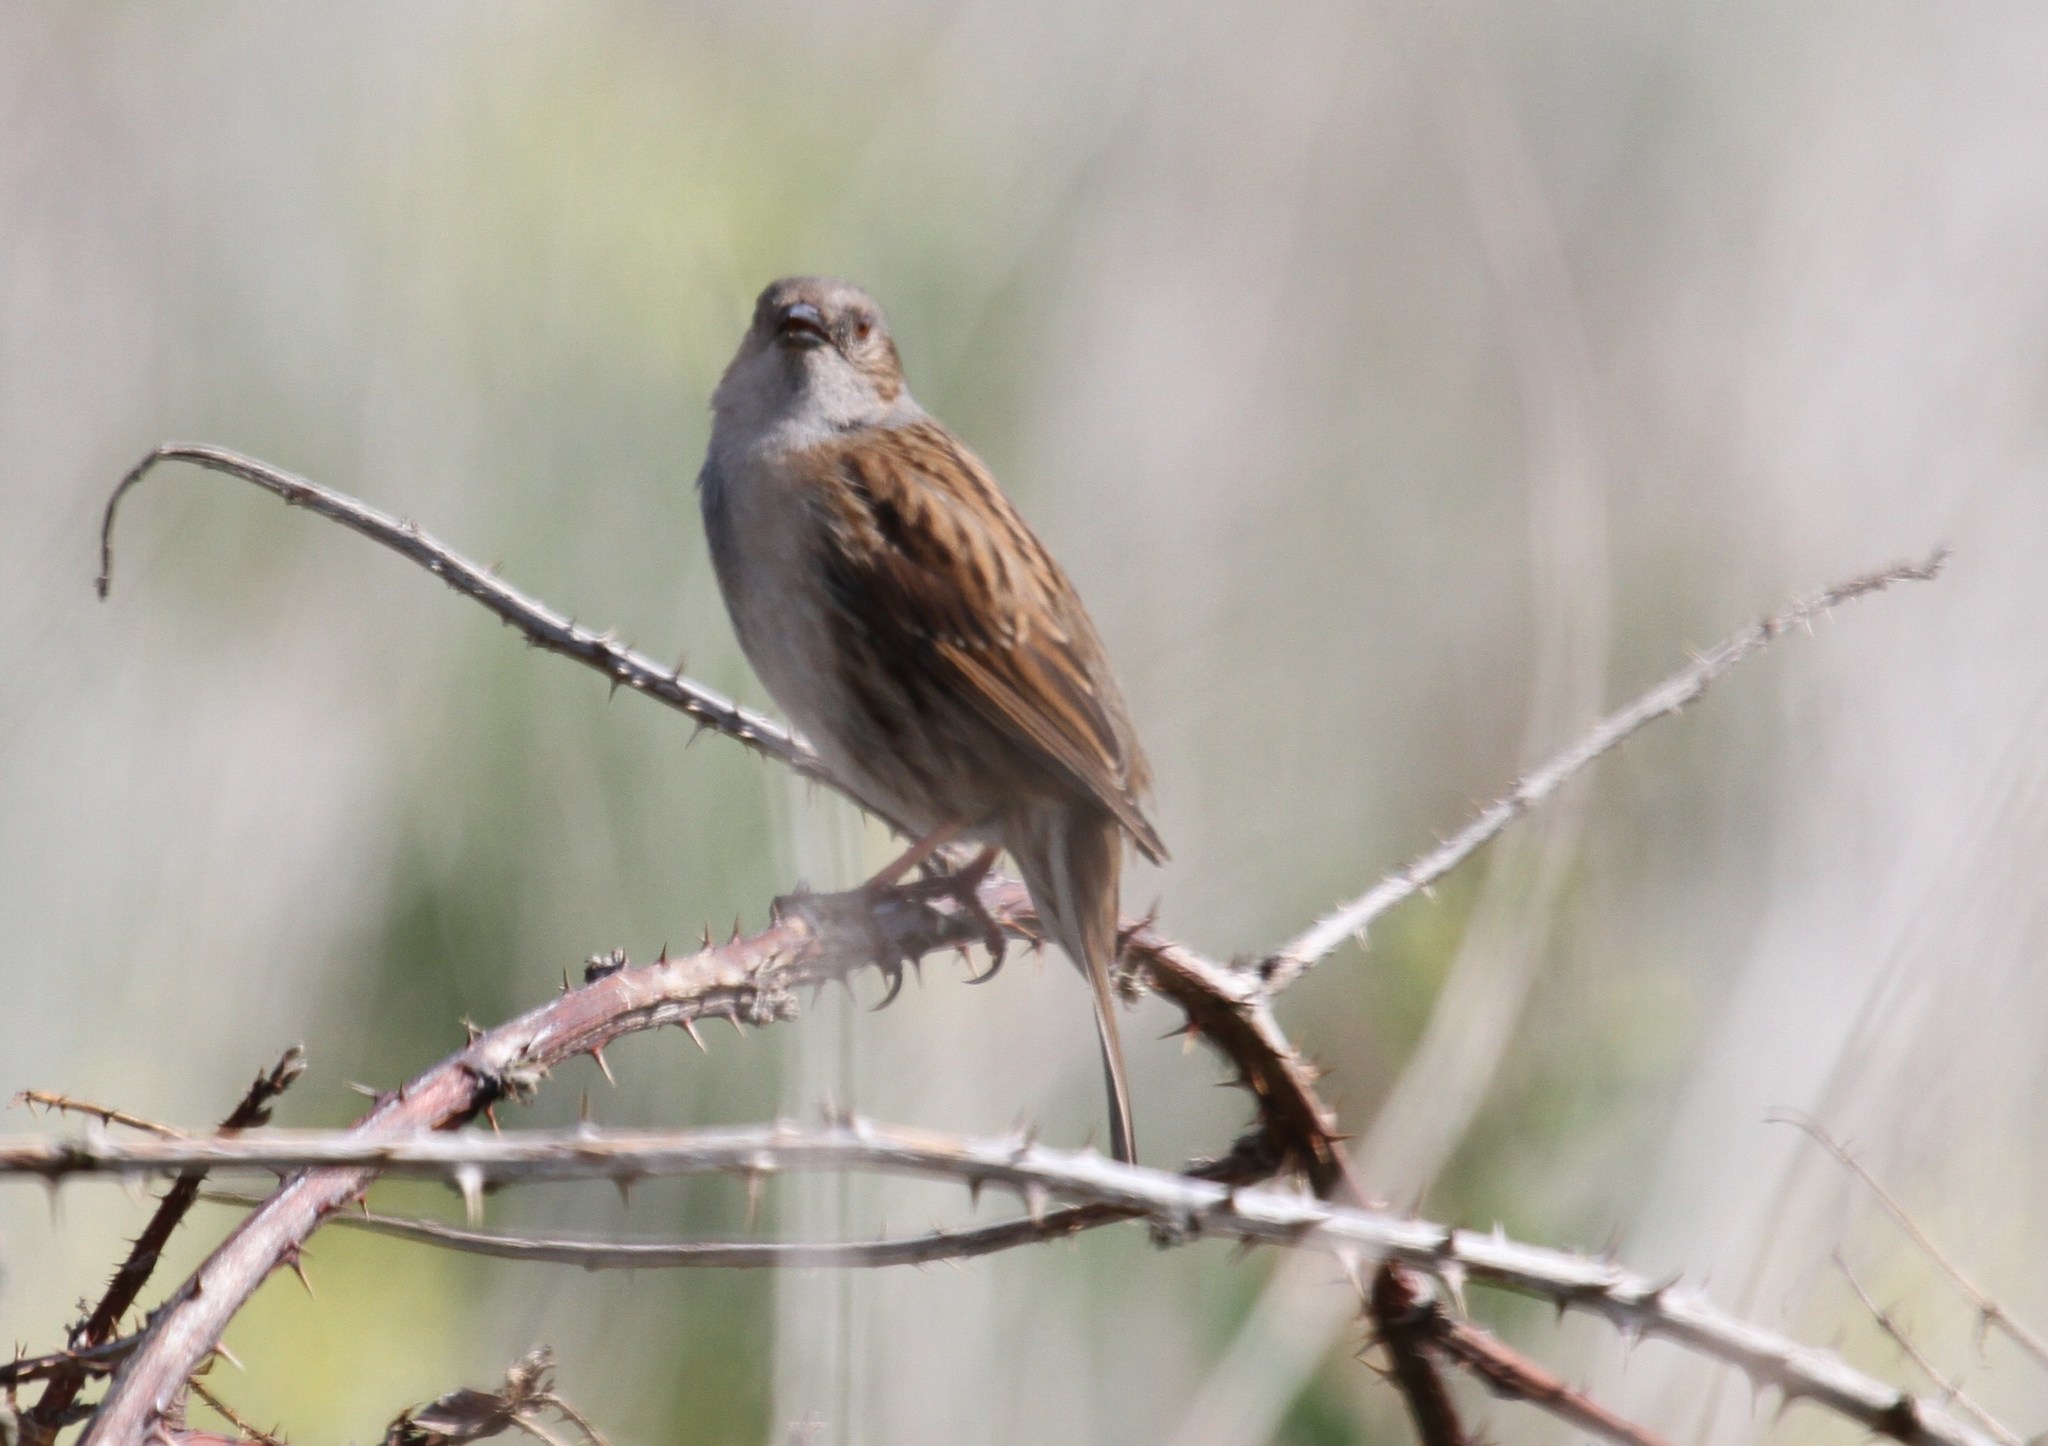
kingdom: Animalia
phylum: Chordata
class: Aves
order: Passeriformes
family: Prunellidae
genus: Prunella
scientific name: Prunella modularis
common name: Dunnock
